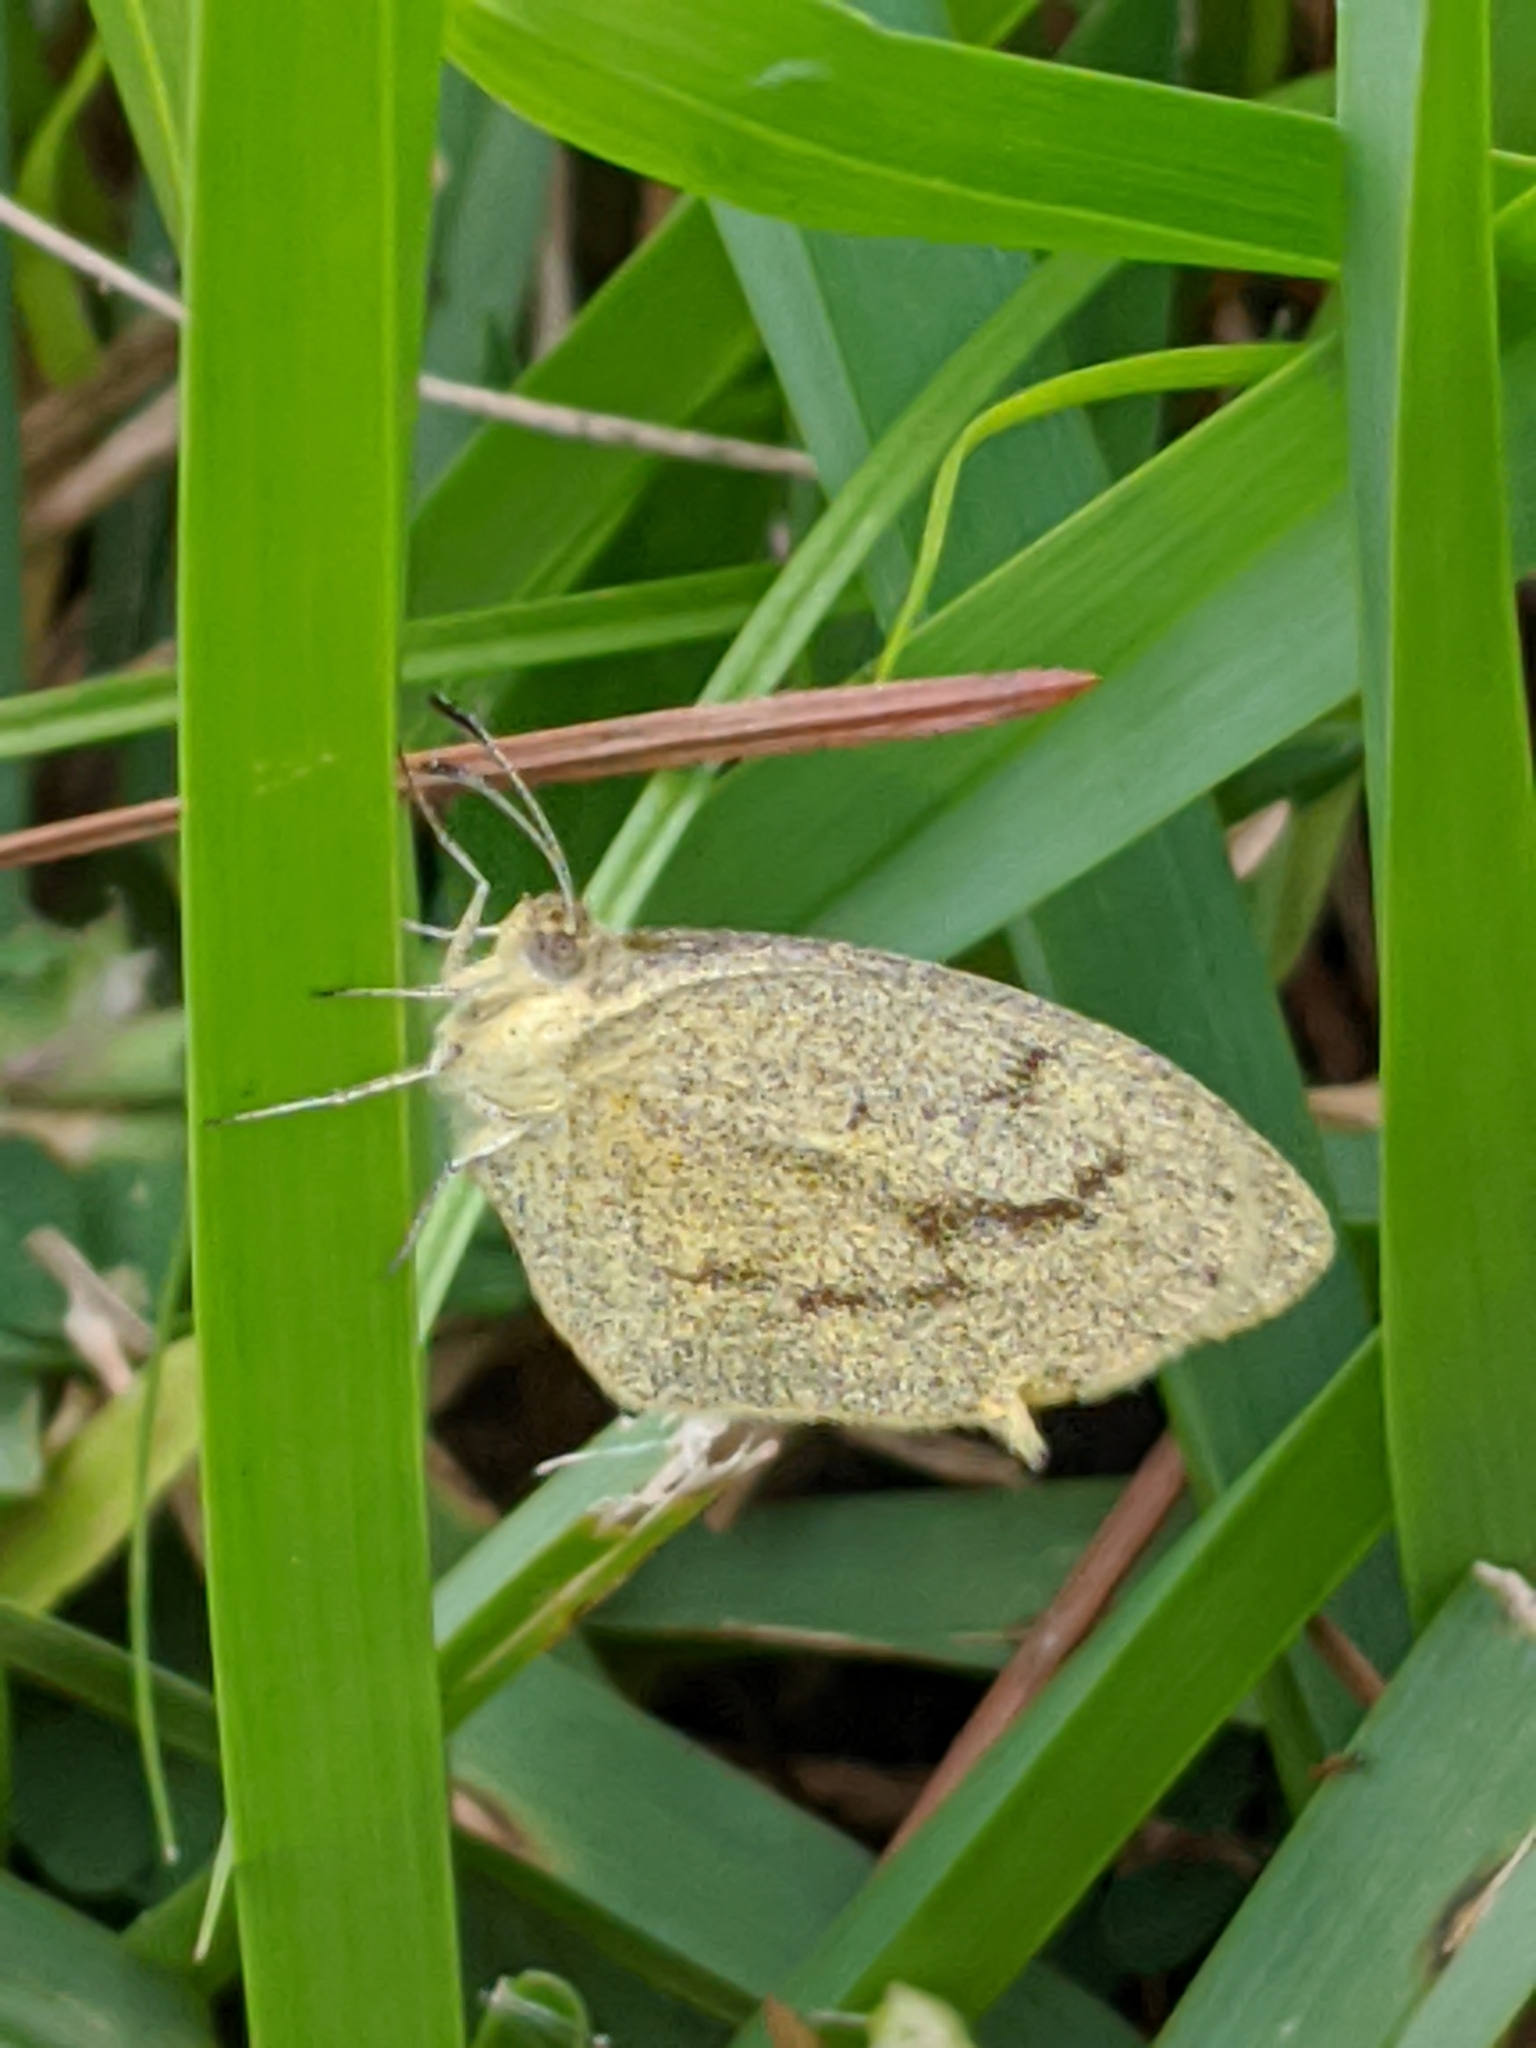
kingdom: Animalia
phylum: Arthropoda
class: Insecta
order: Lepidoptera
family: Pieridae
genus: Eurema
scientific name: Eurema daira
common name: Barred sulphur
